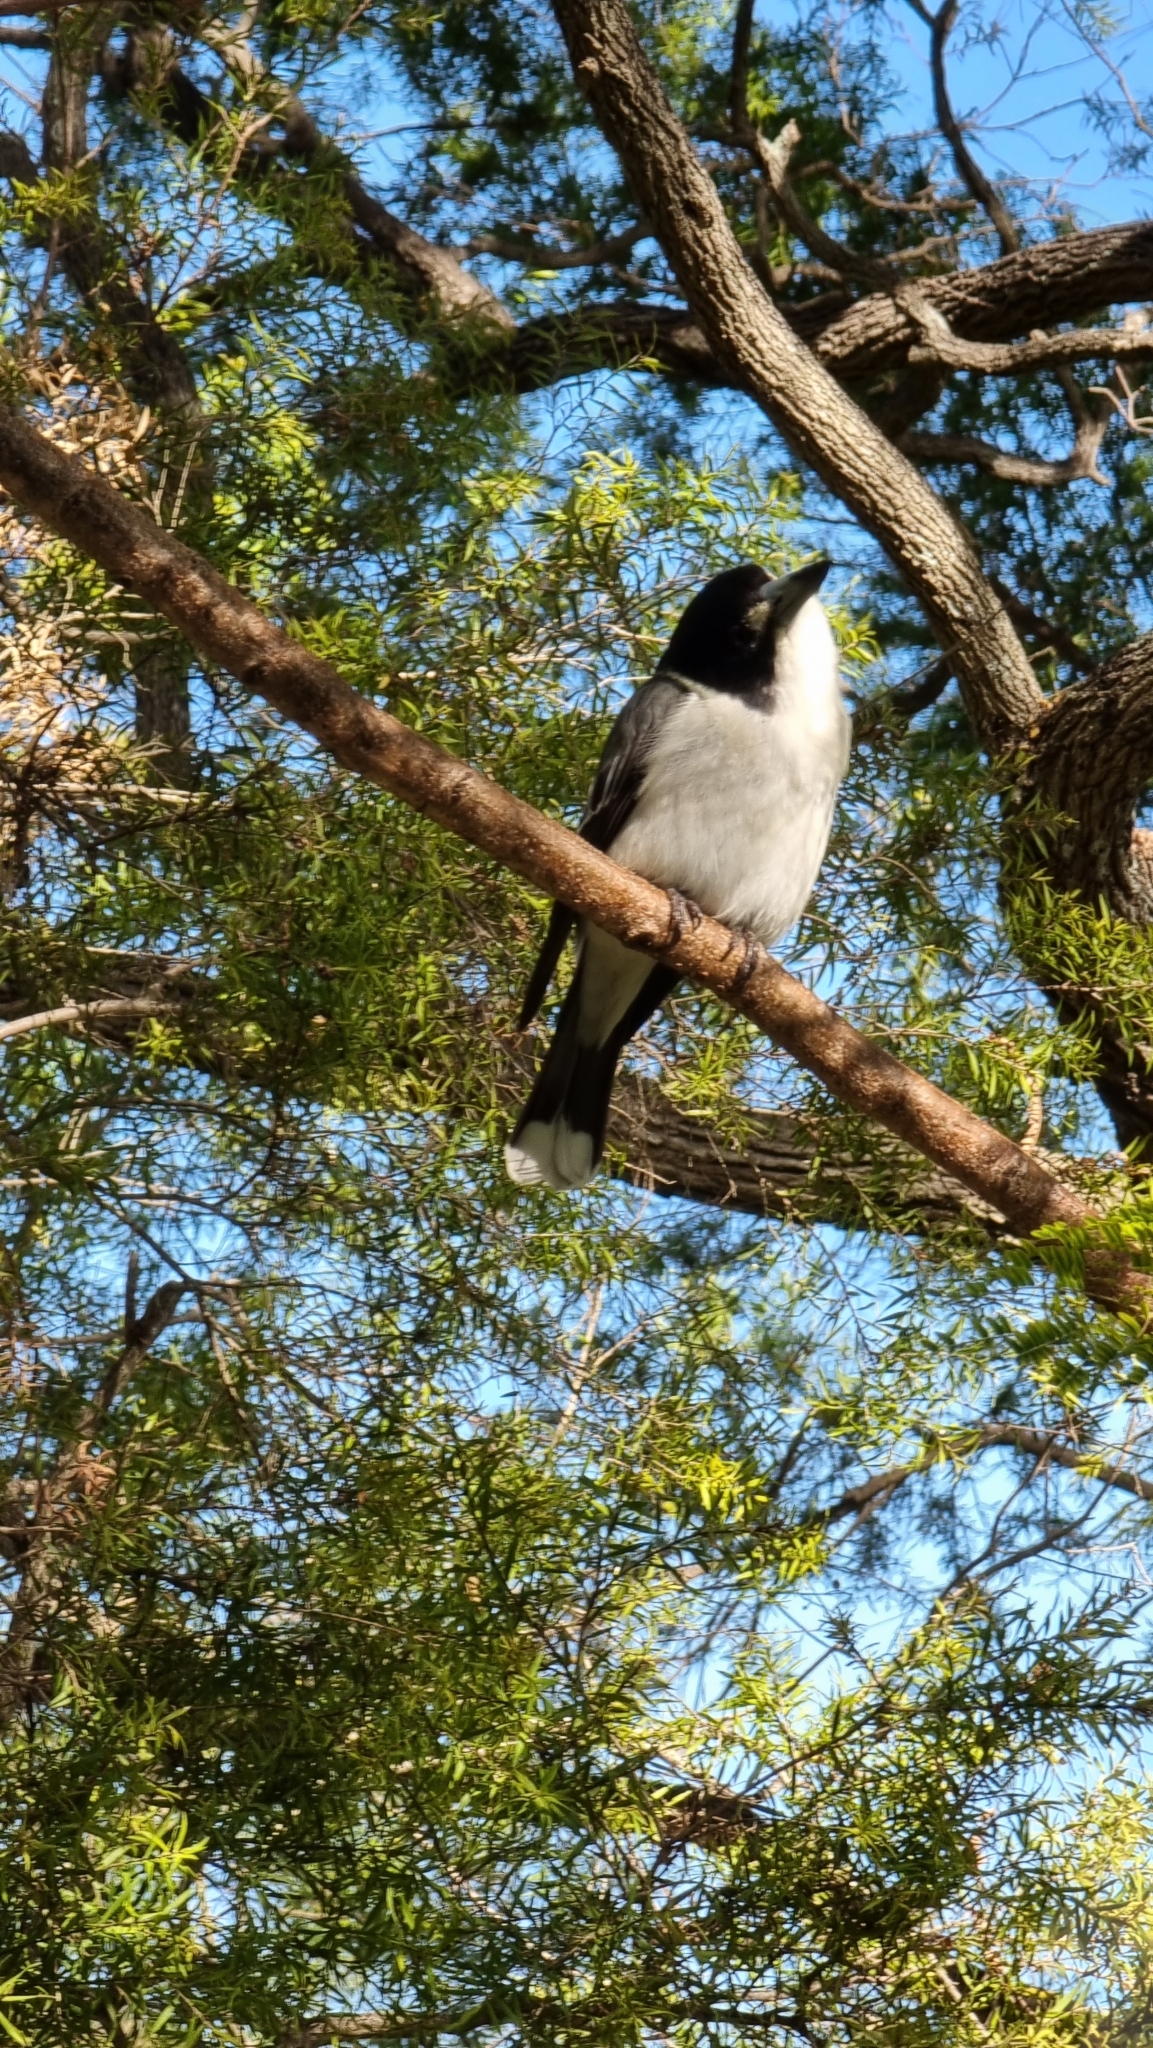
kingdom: Animalia
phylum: Chordata
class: Aves
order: Passeriformes
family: Cracticidae
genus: Cracticus
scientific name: Cracticus torquatus
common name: Grey butcherbird
